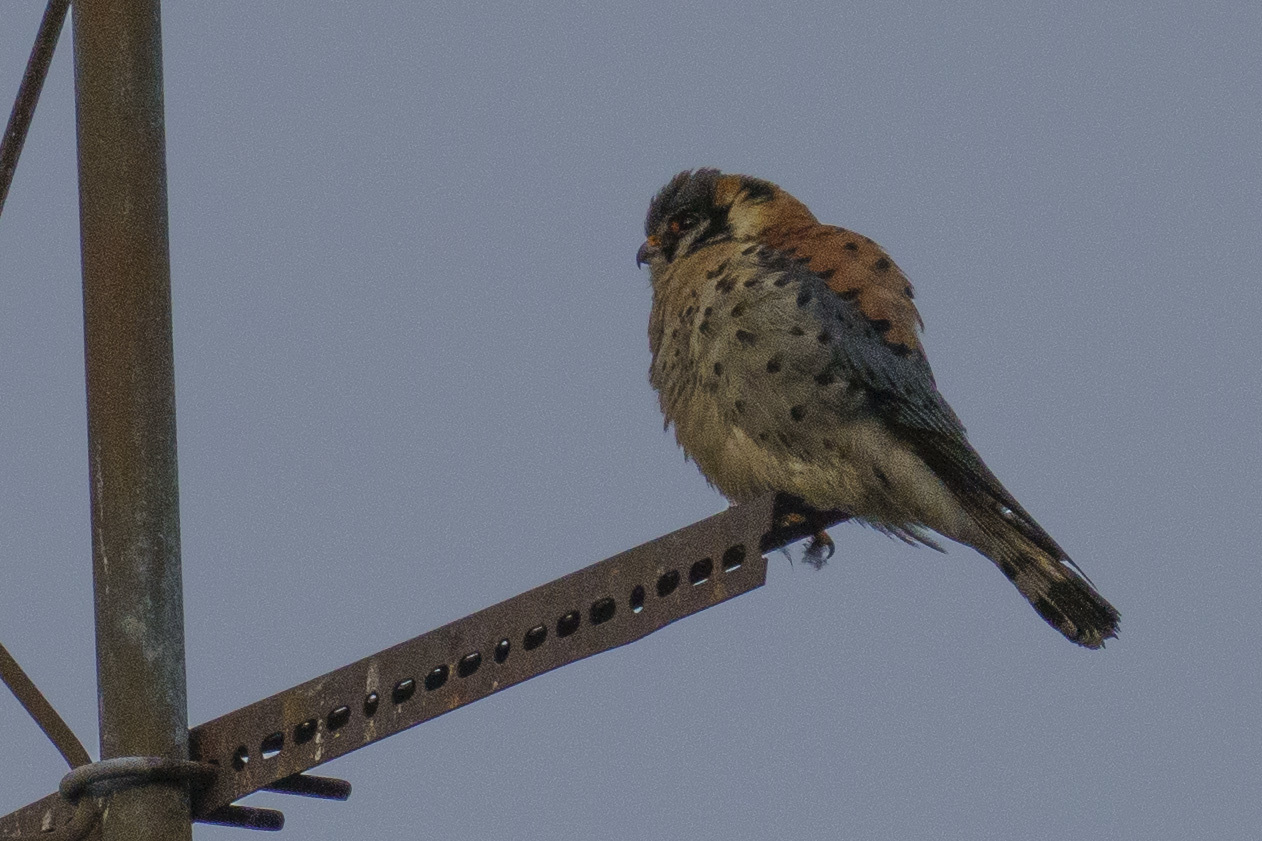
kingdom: Animalia
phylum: Chordata
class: Aves
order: Falconiformes
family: Falconidae
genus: Falco
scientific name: Falco sparverius
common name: American kestrel
